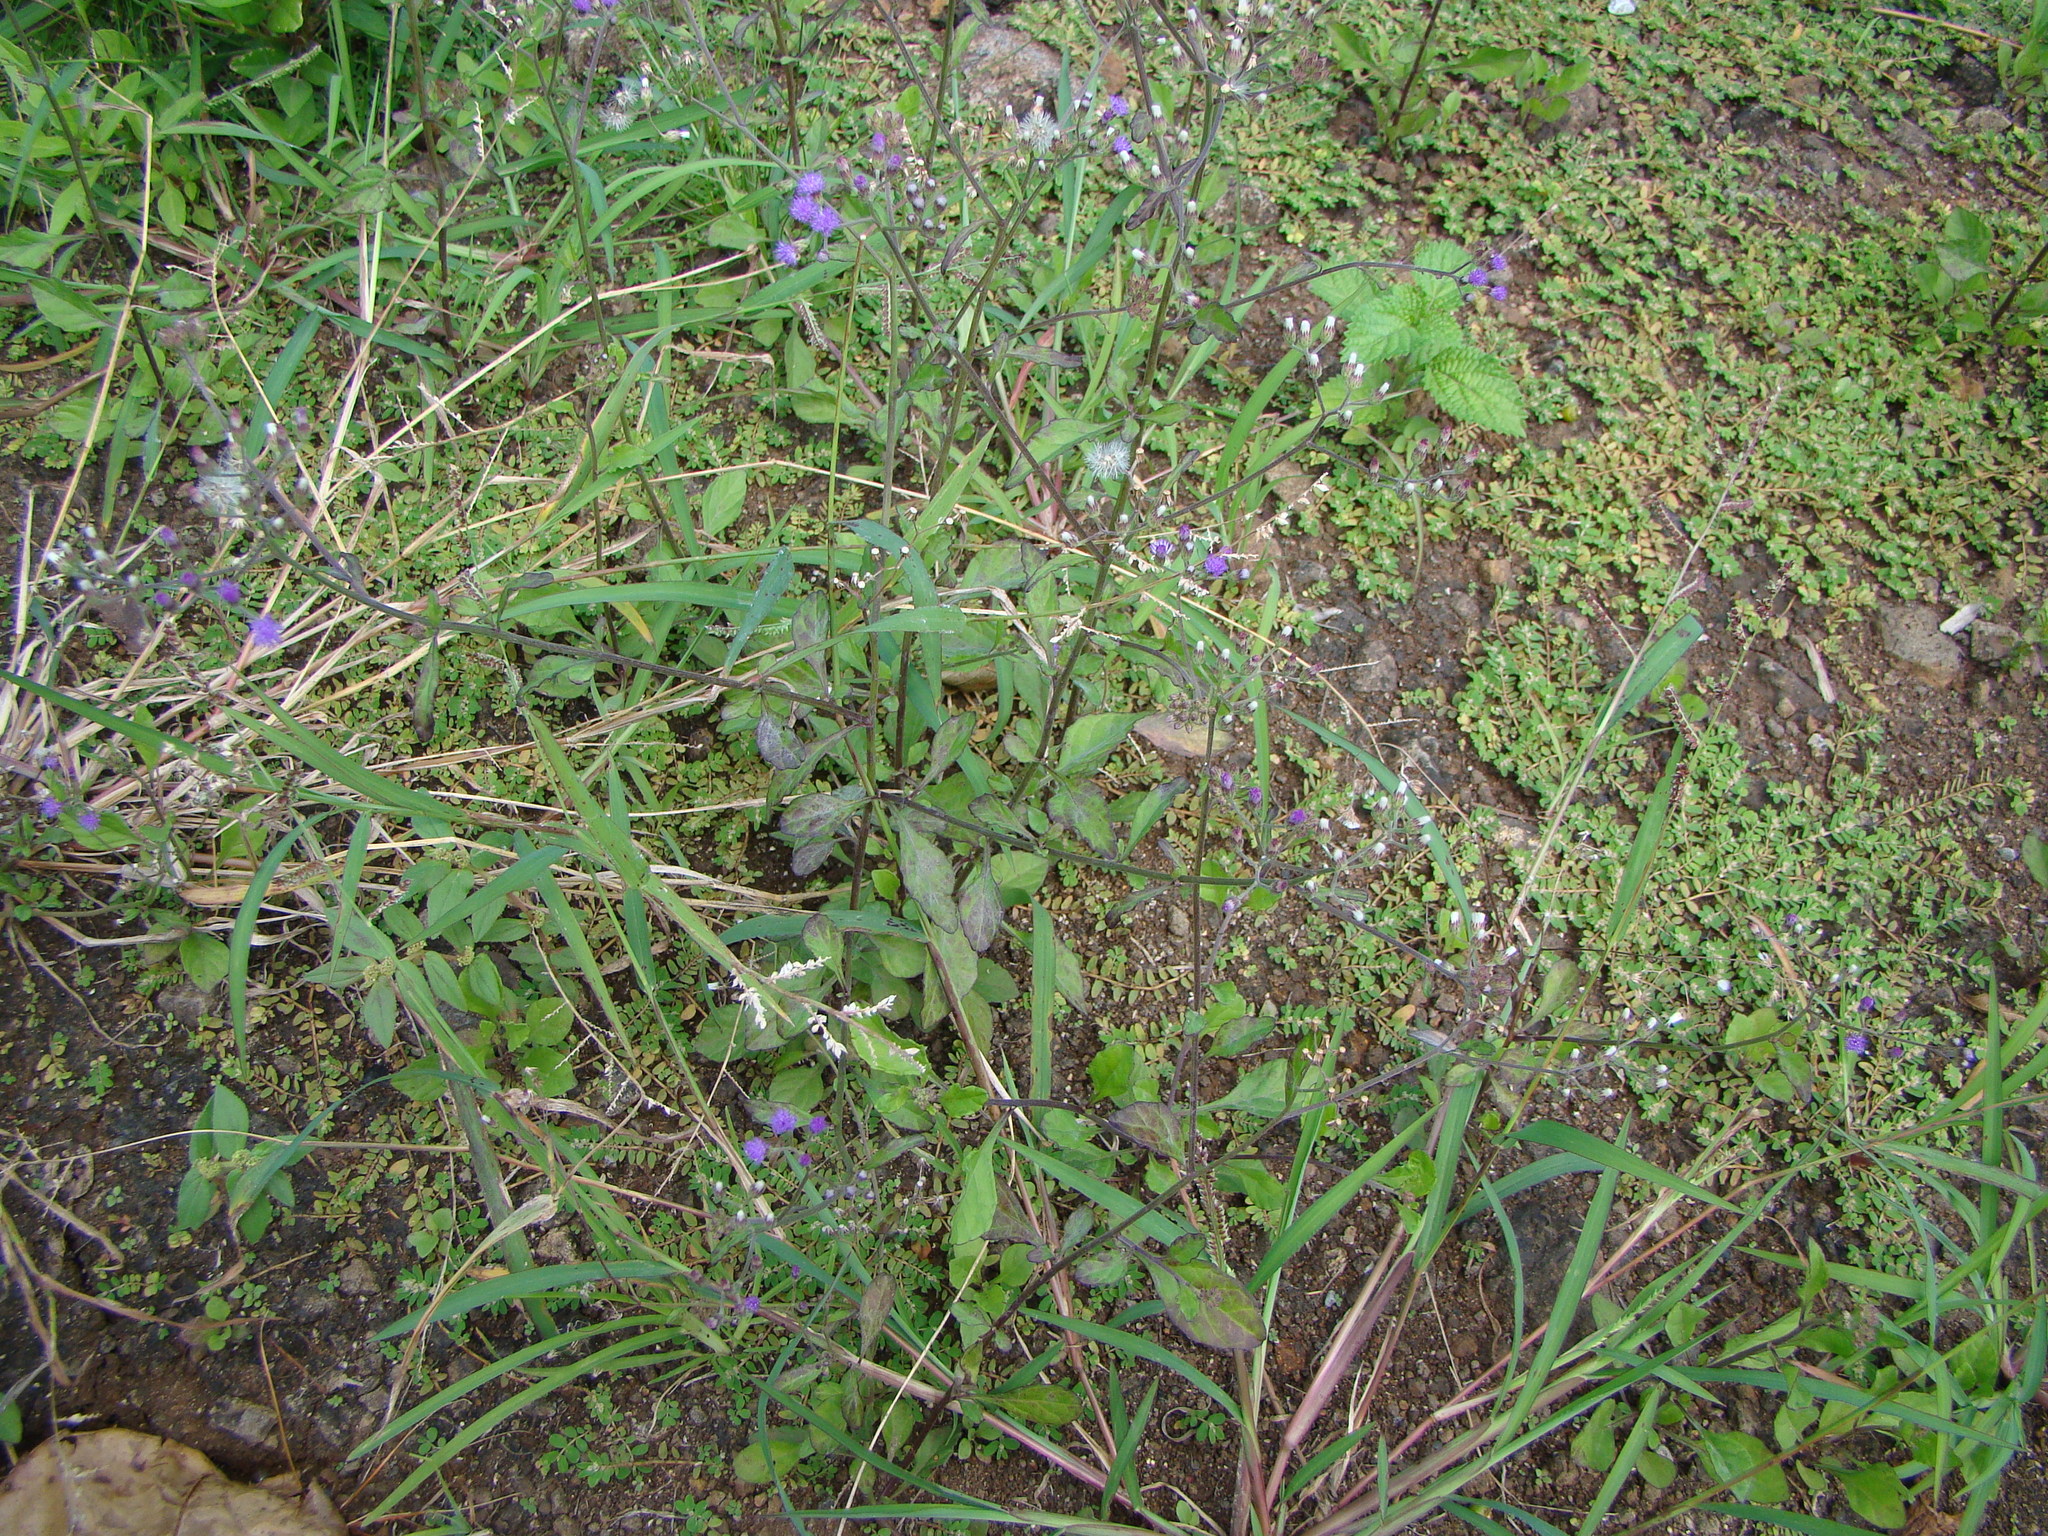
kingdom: Plantae
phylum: Tracheophyta
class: Magnoliopsida
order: Asterales
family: Asteraceae
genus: Cyanthillium
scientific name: Cyanthillium cinereum
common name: Little ironweed
